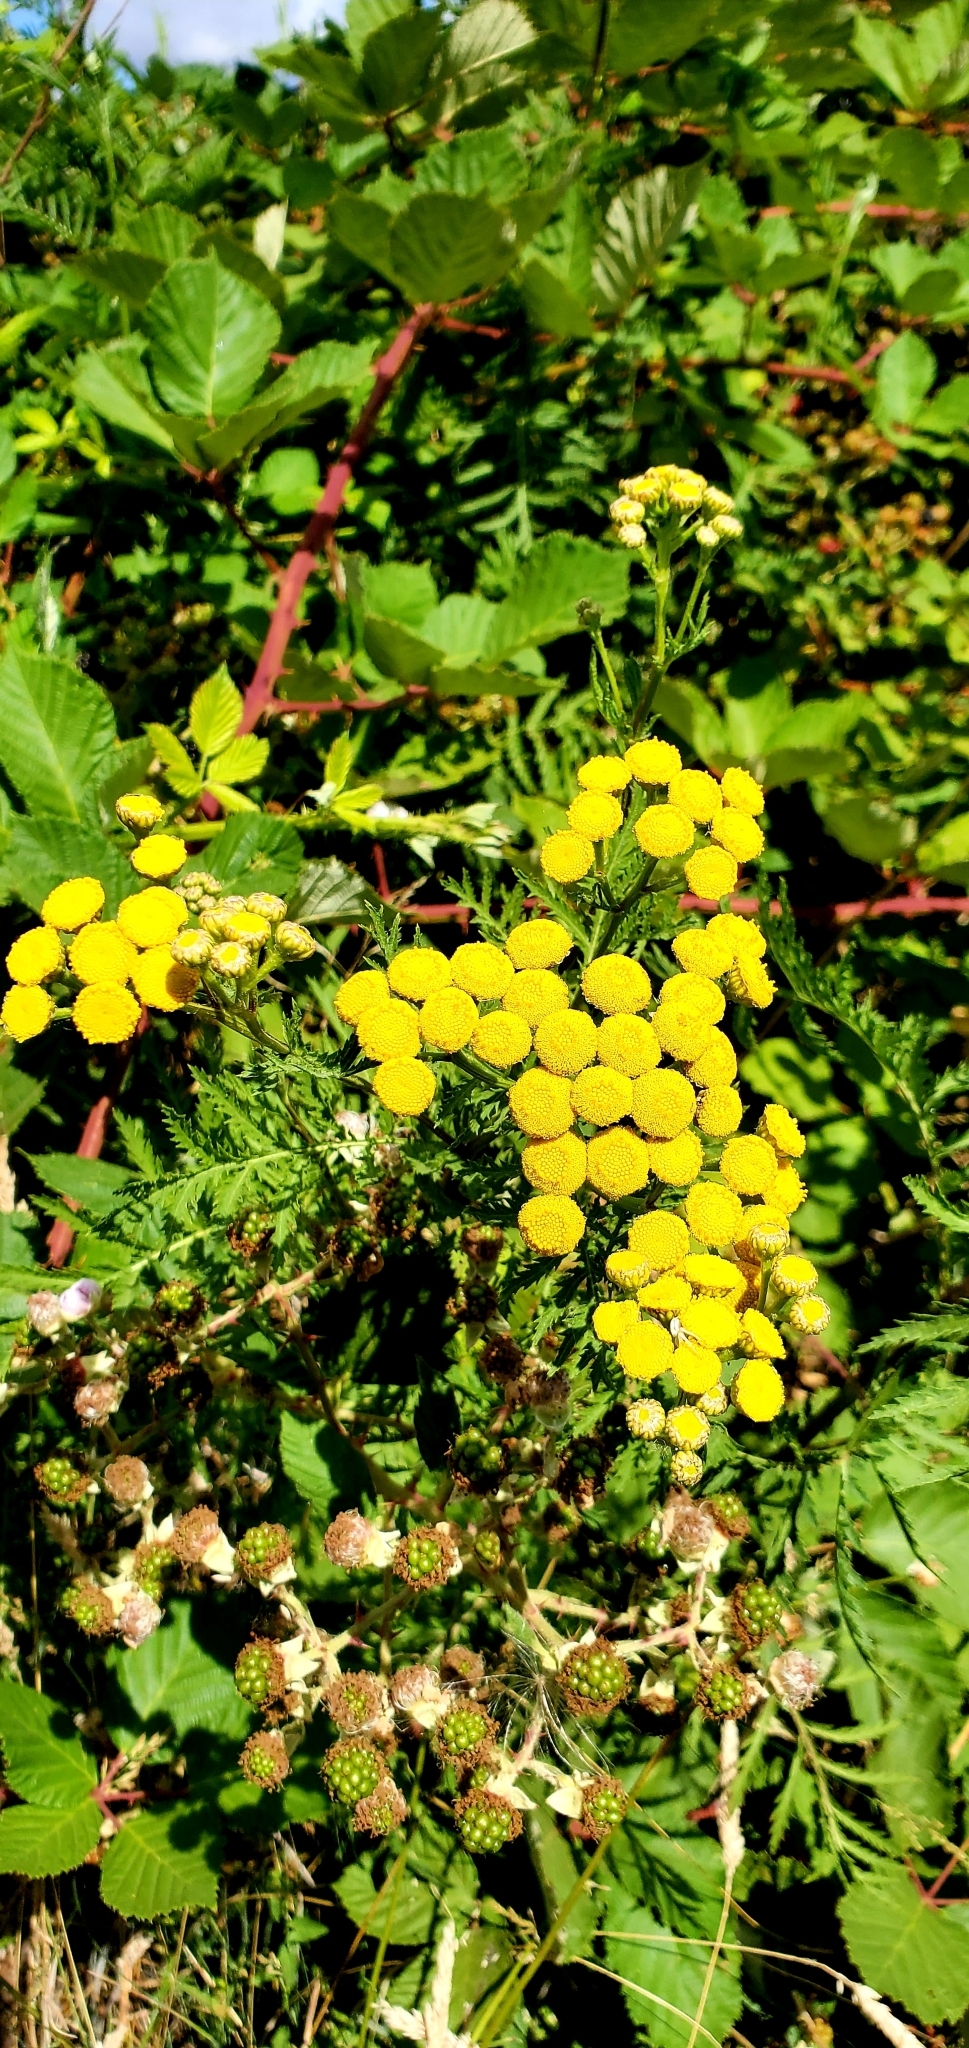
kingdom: Plantae
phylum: Tracheophyta
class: Magnoliopsida
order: Asterales
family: Asteraceae
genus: Tanacetum
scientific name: Tanacetum vulgare
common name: Common tansy
